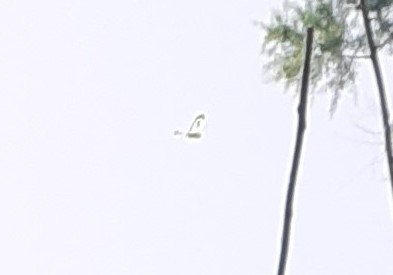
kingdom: Animalia
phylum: Arthropoda
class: Insecta
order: Lepidoptera
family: Pieridae
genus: Pieris
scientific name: Pieris cheiranthi
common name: Canary islands large white
